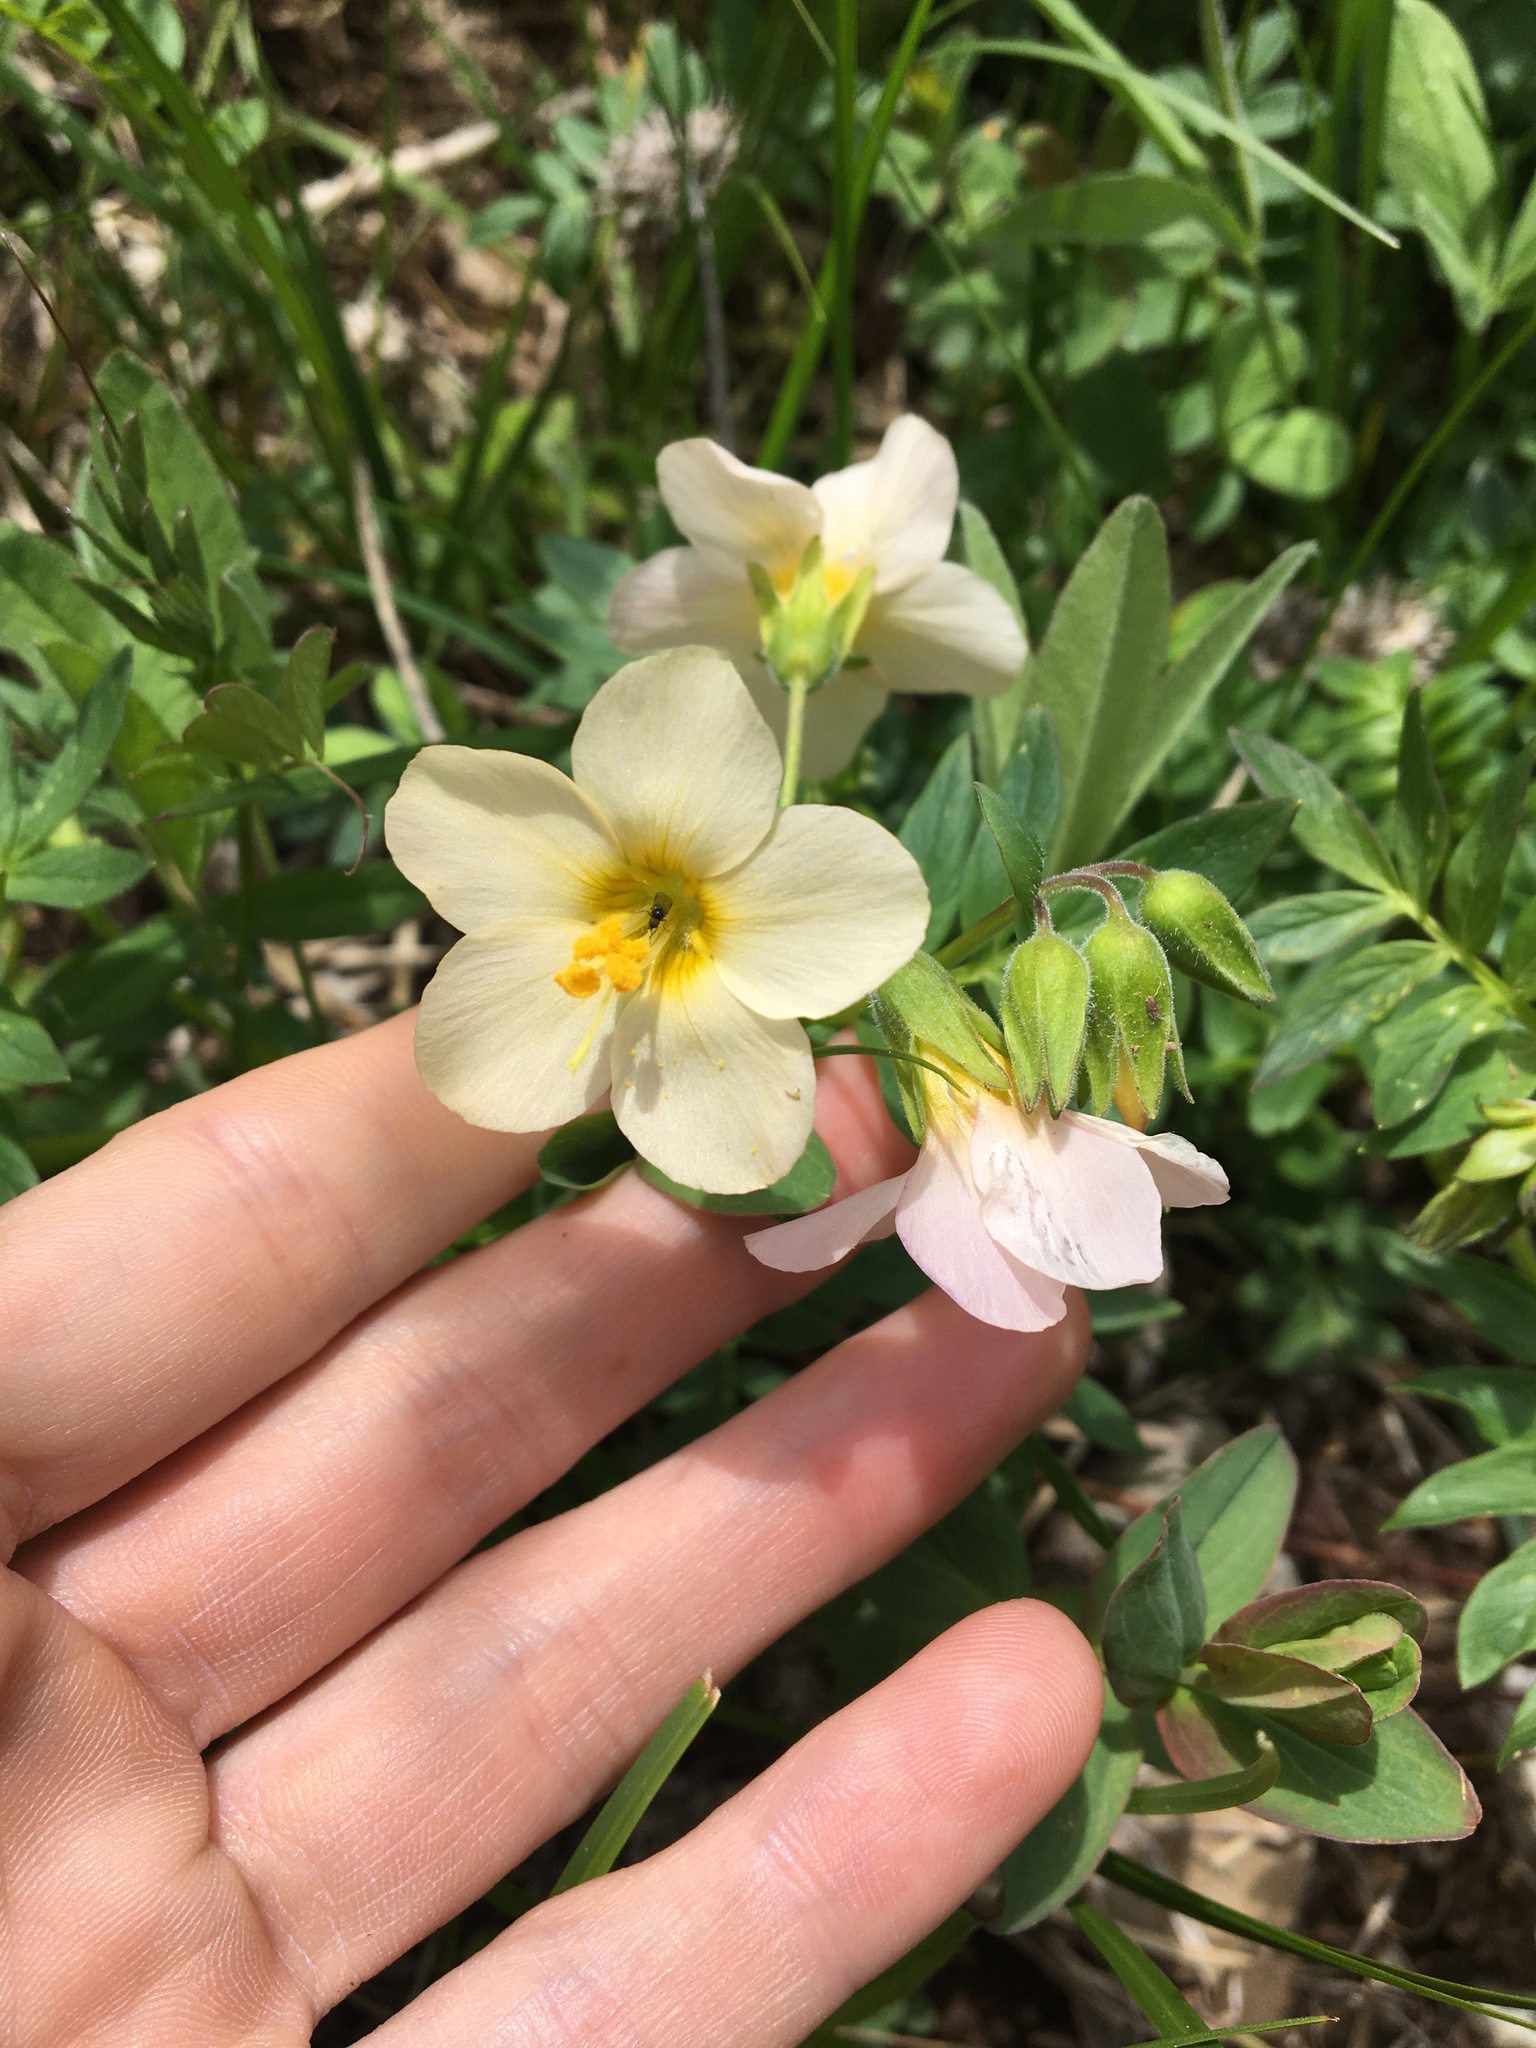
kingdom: Plantae
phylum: Tracheophyta
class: Magnoliopsida
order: Ericales
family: Polemoniaceae
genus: Polemonium
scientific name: Polemonium carneum
